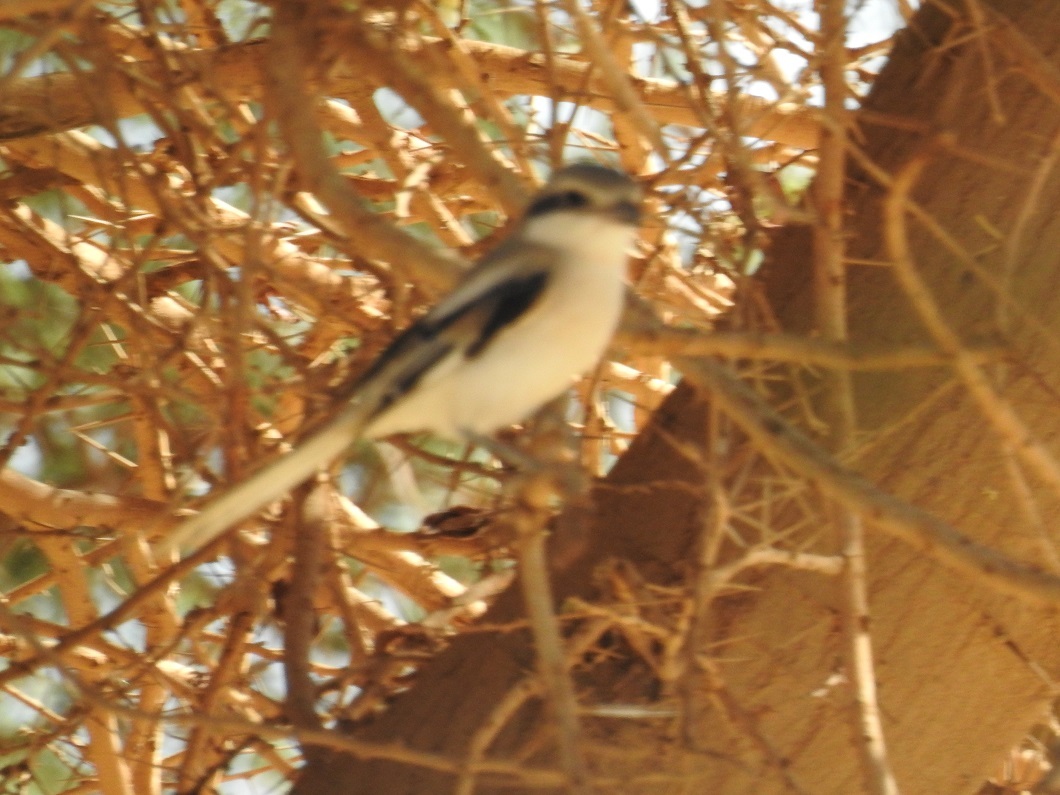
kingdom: Animalia
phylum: Chordata
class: Aves
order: Passeriformes
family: Laniidae
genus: Lanius
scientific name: Lanius excubitor
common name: Great grey shrike
